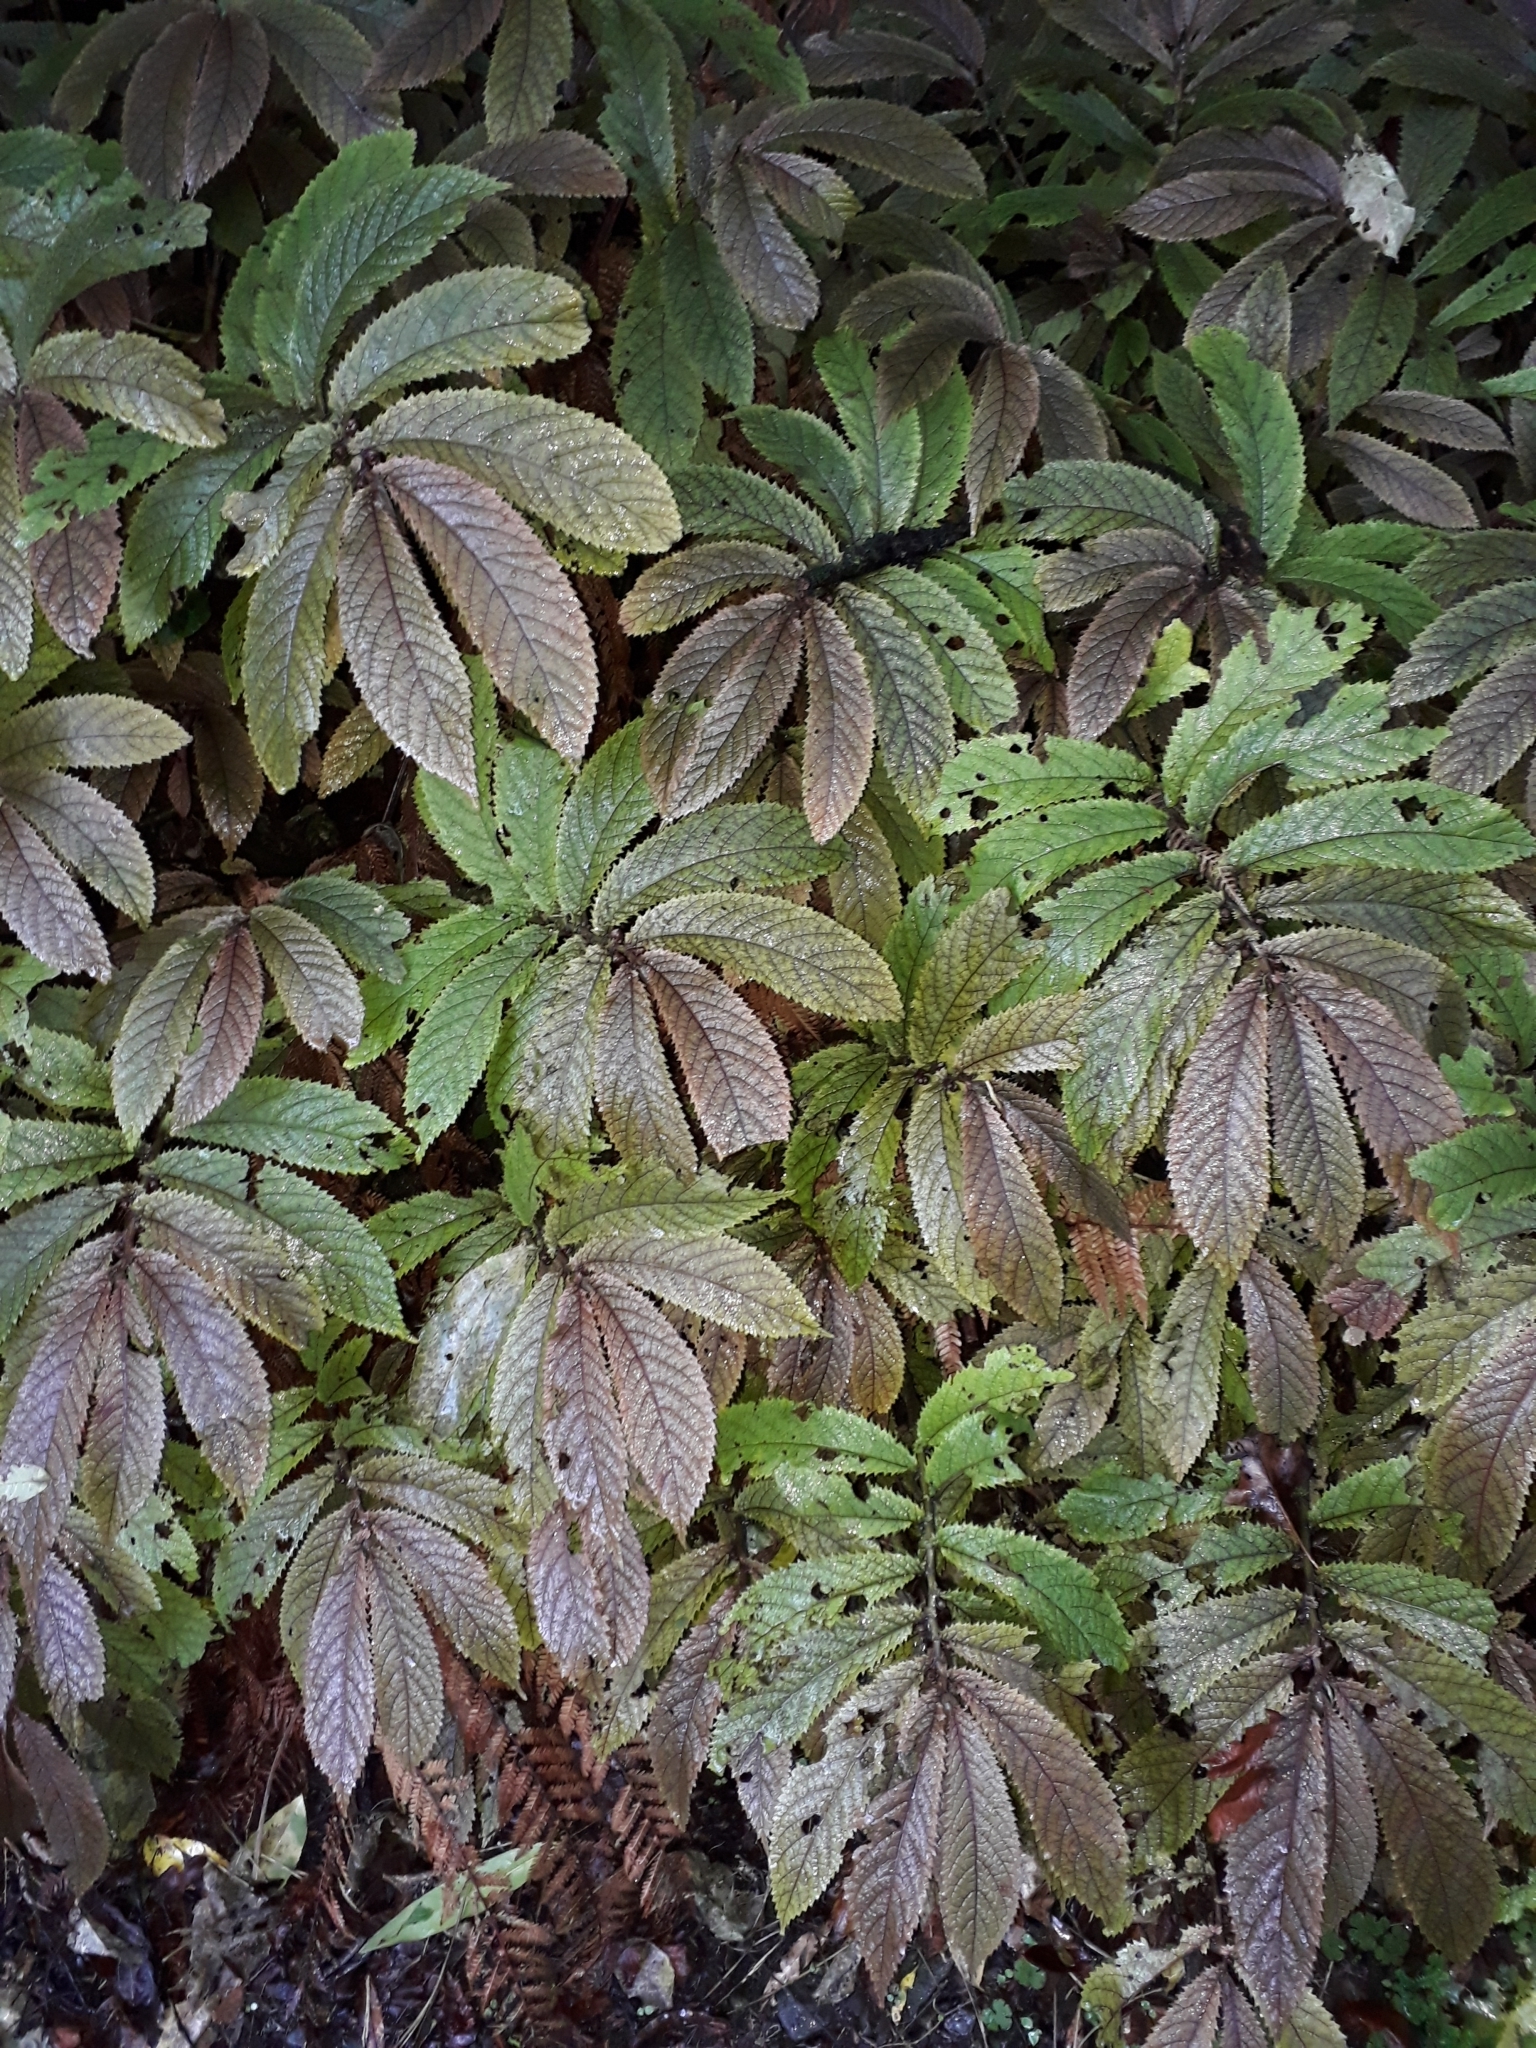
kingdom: Plantae
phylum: Tracheophyta
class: Magnoliopsida
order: Rosales
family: Urticaceae
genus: Elatostema
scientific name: Elatostema rugosum
